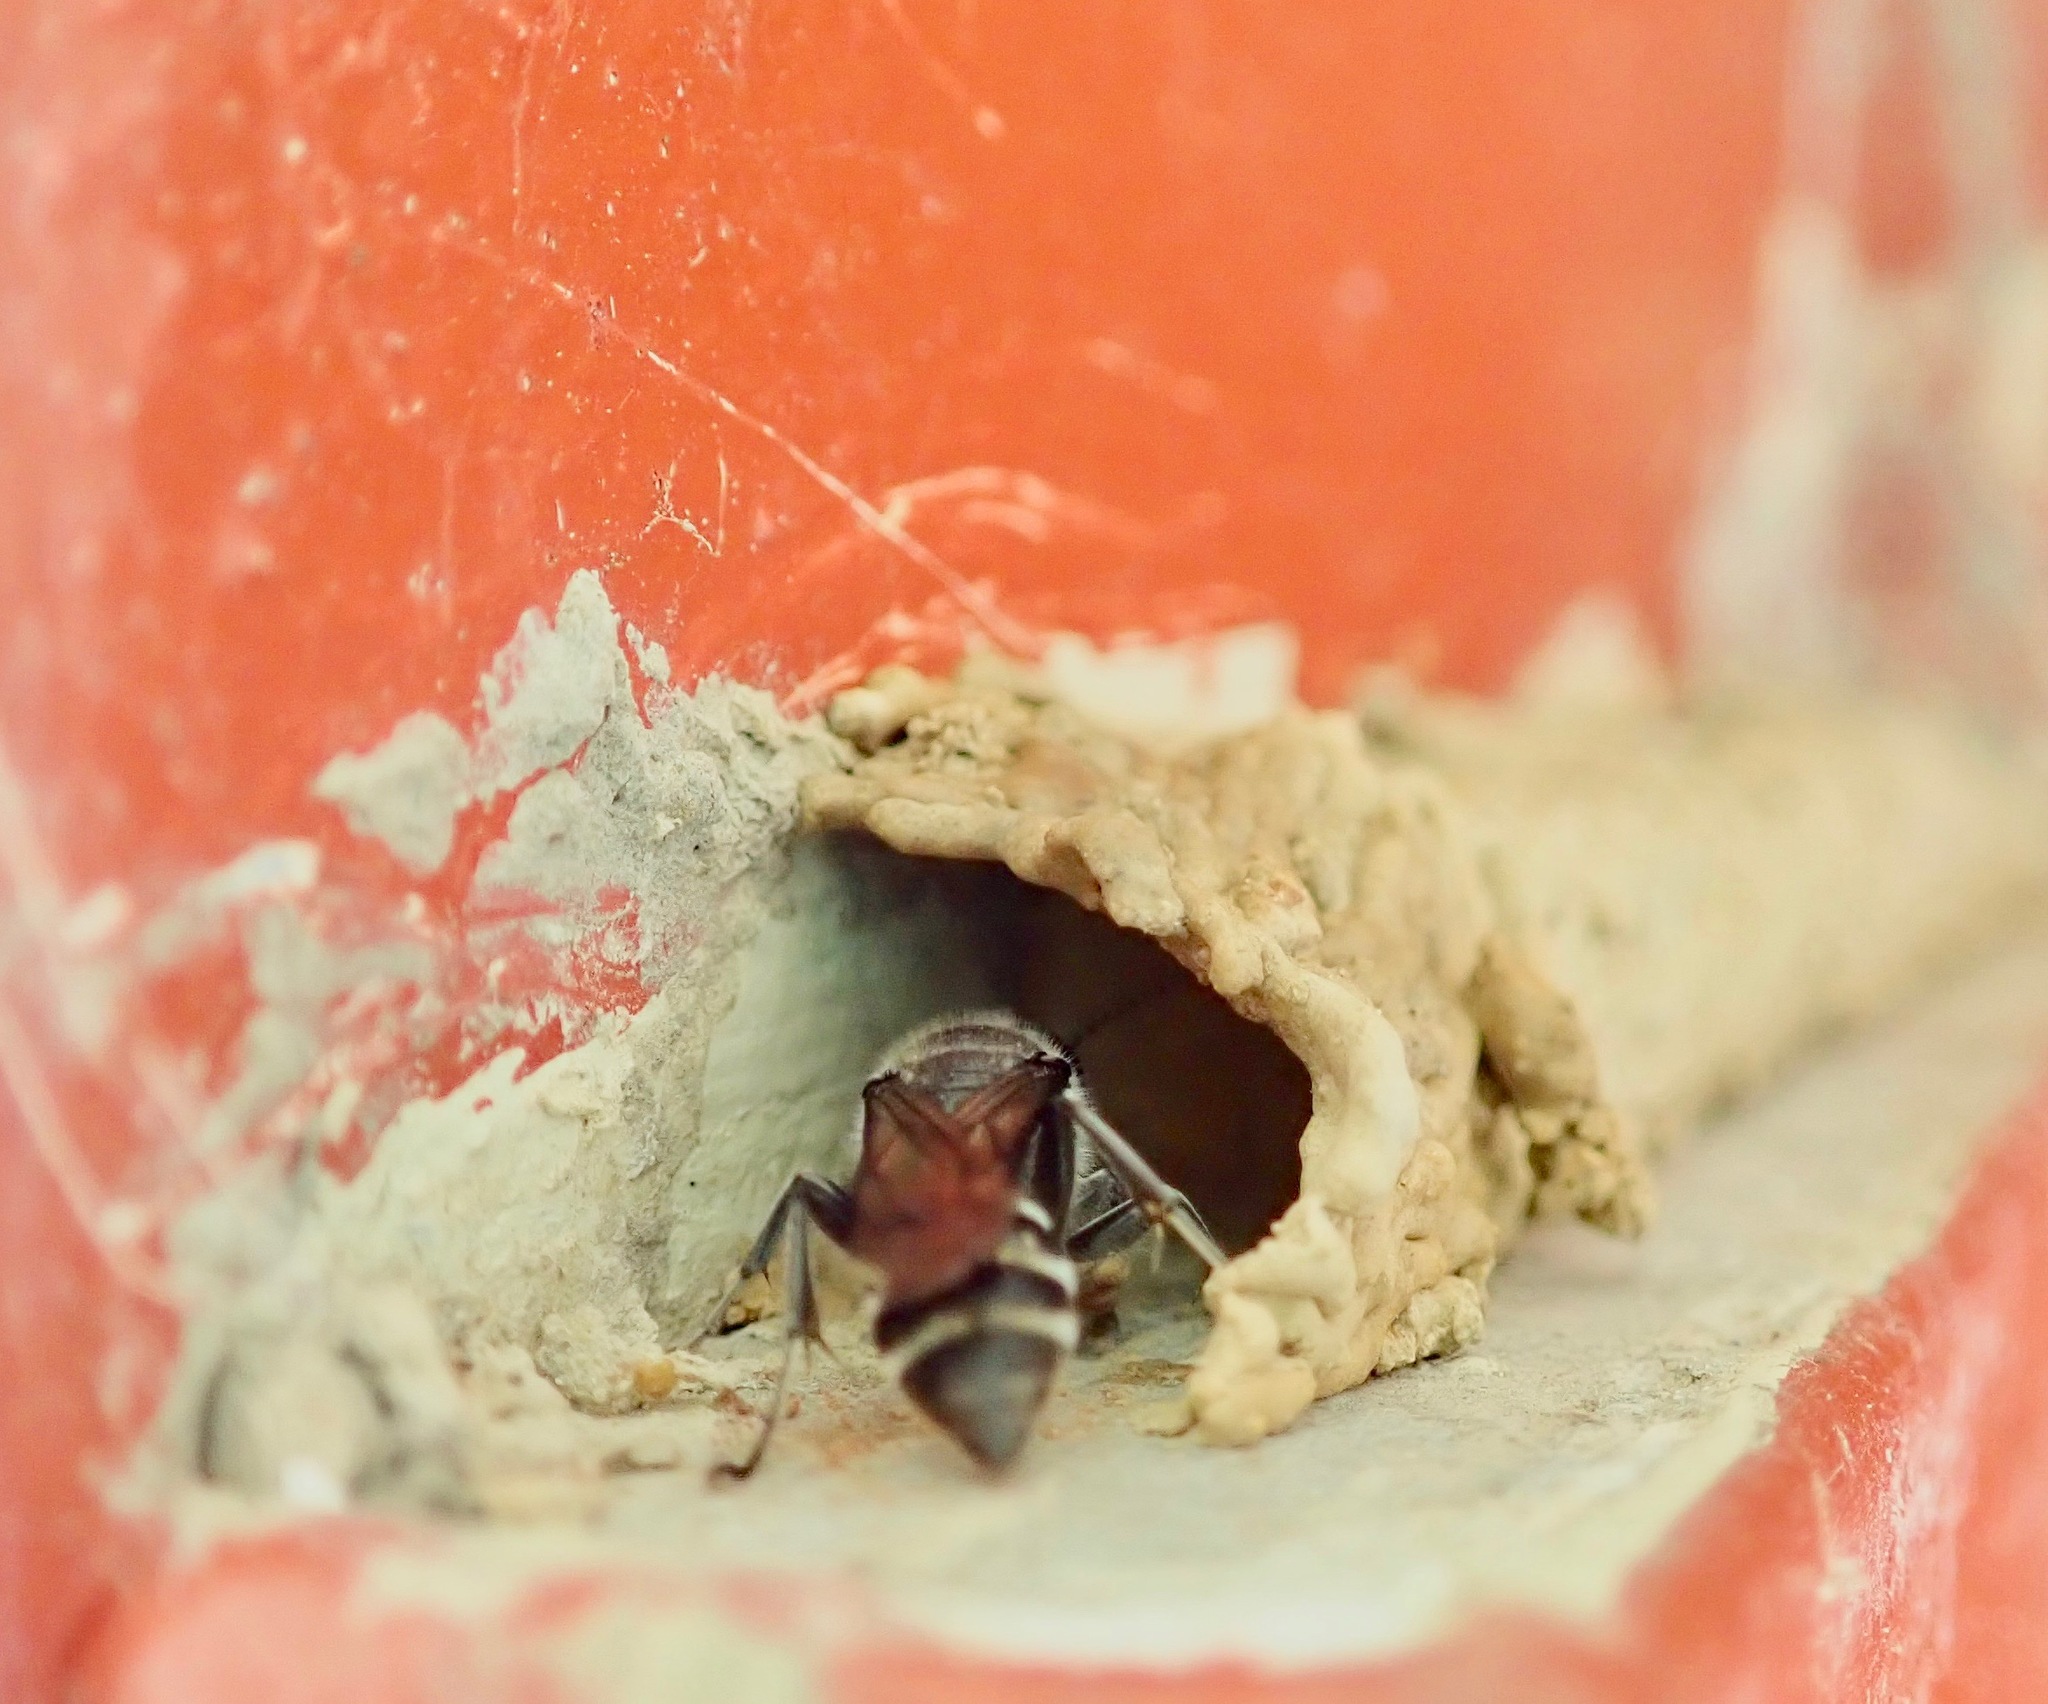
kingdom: Animalia
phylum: Arthropoda
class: Insecta
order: Hymenoptera
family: Crabronidae
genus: Pison
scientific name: Pison spinolae
